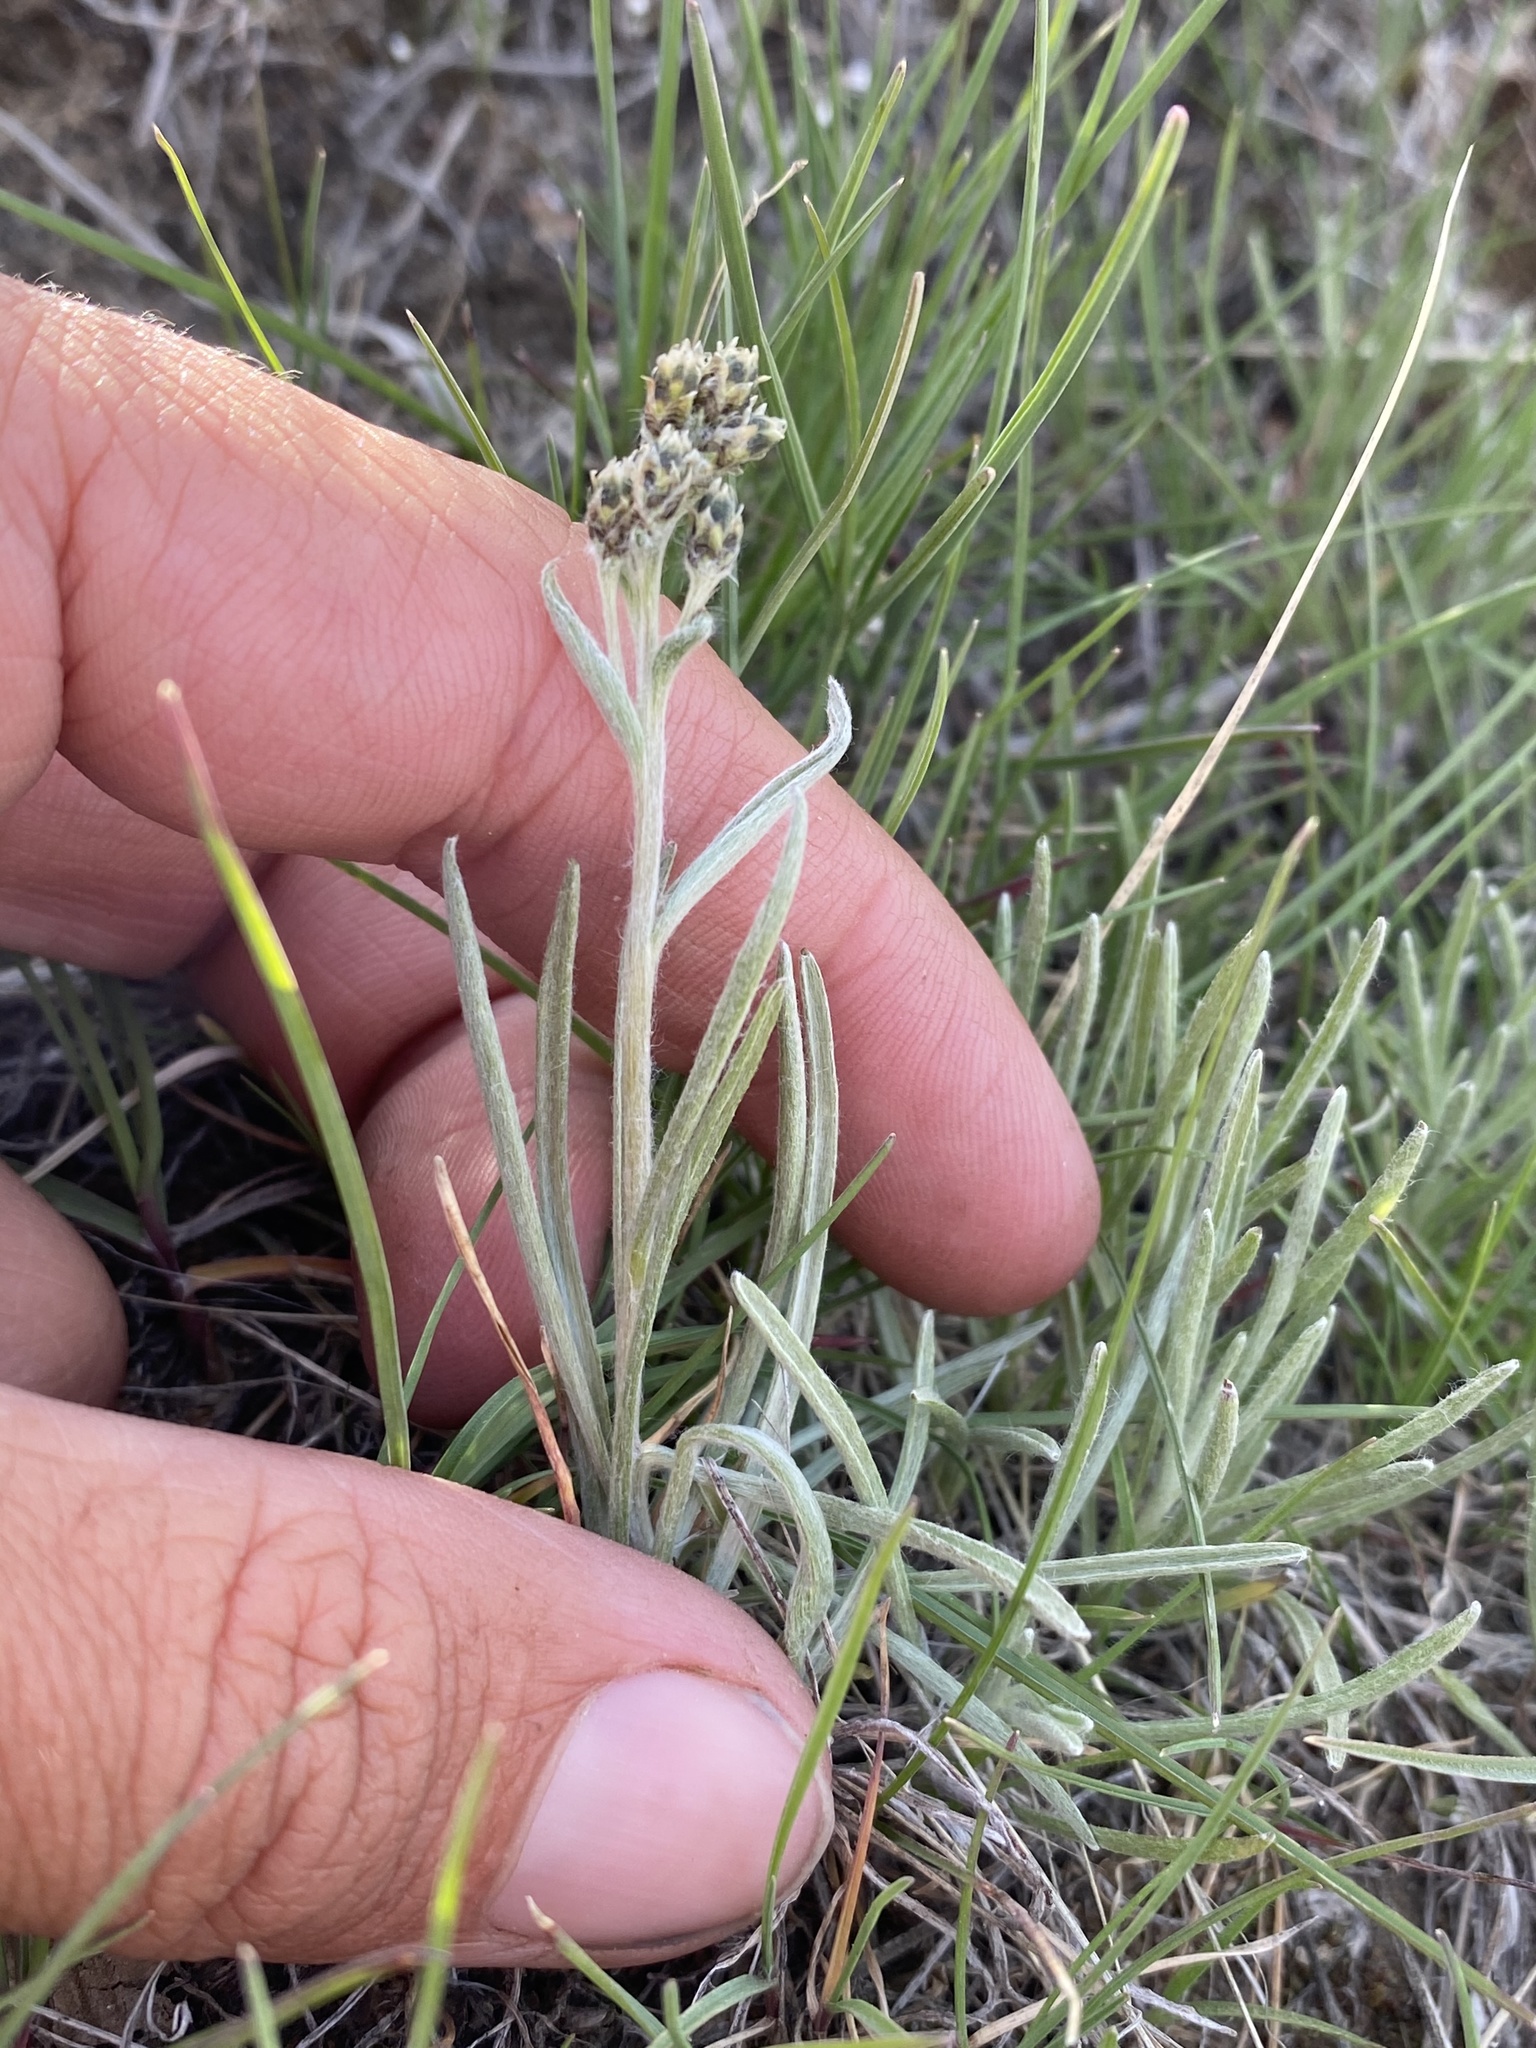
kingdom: Plantae
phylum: Tracheophyta
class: Magnoliopsida
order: Asterales
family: Asteraceae
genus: Antennaria
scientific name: Antennaria stenophylla
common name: Narrow-leaved pussytoes
